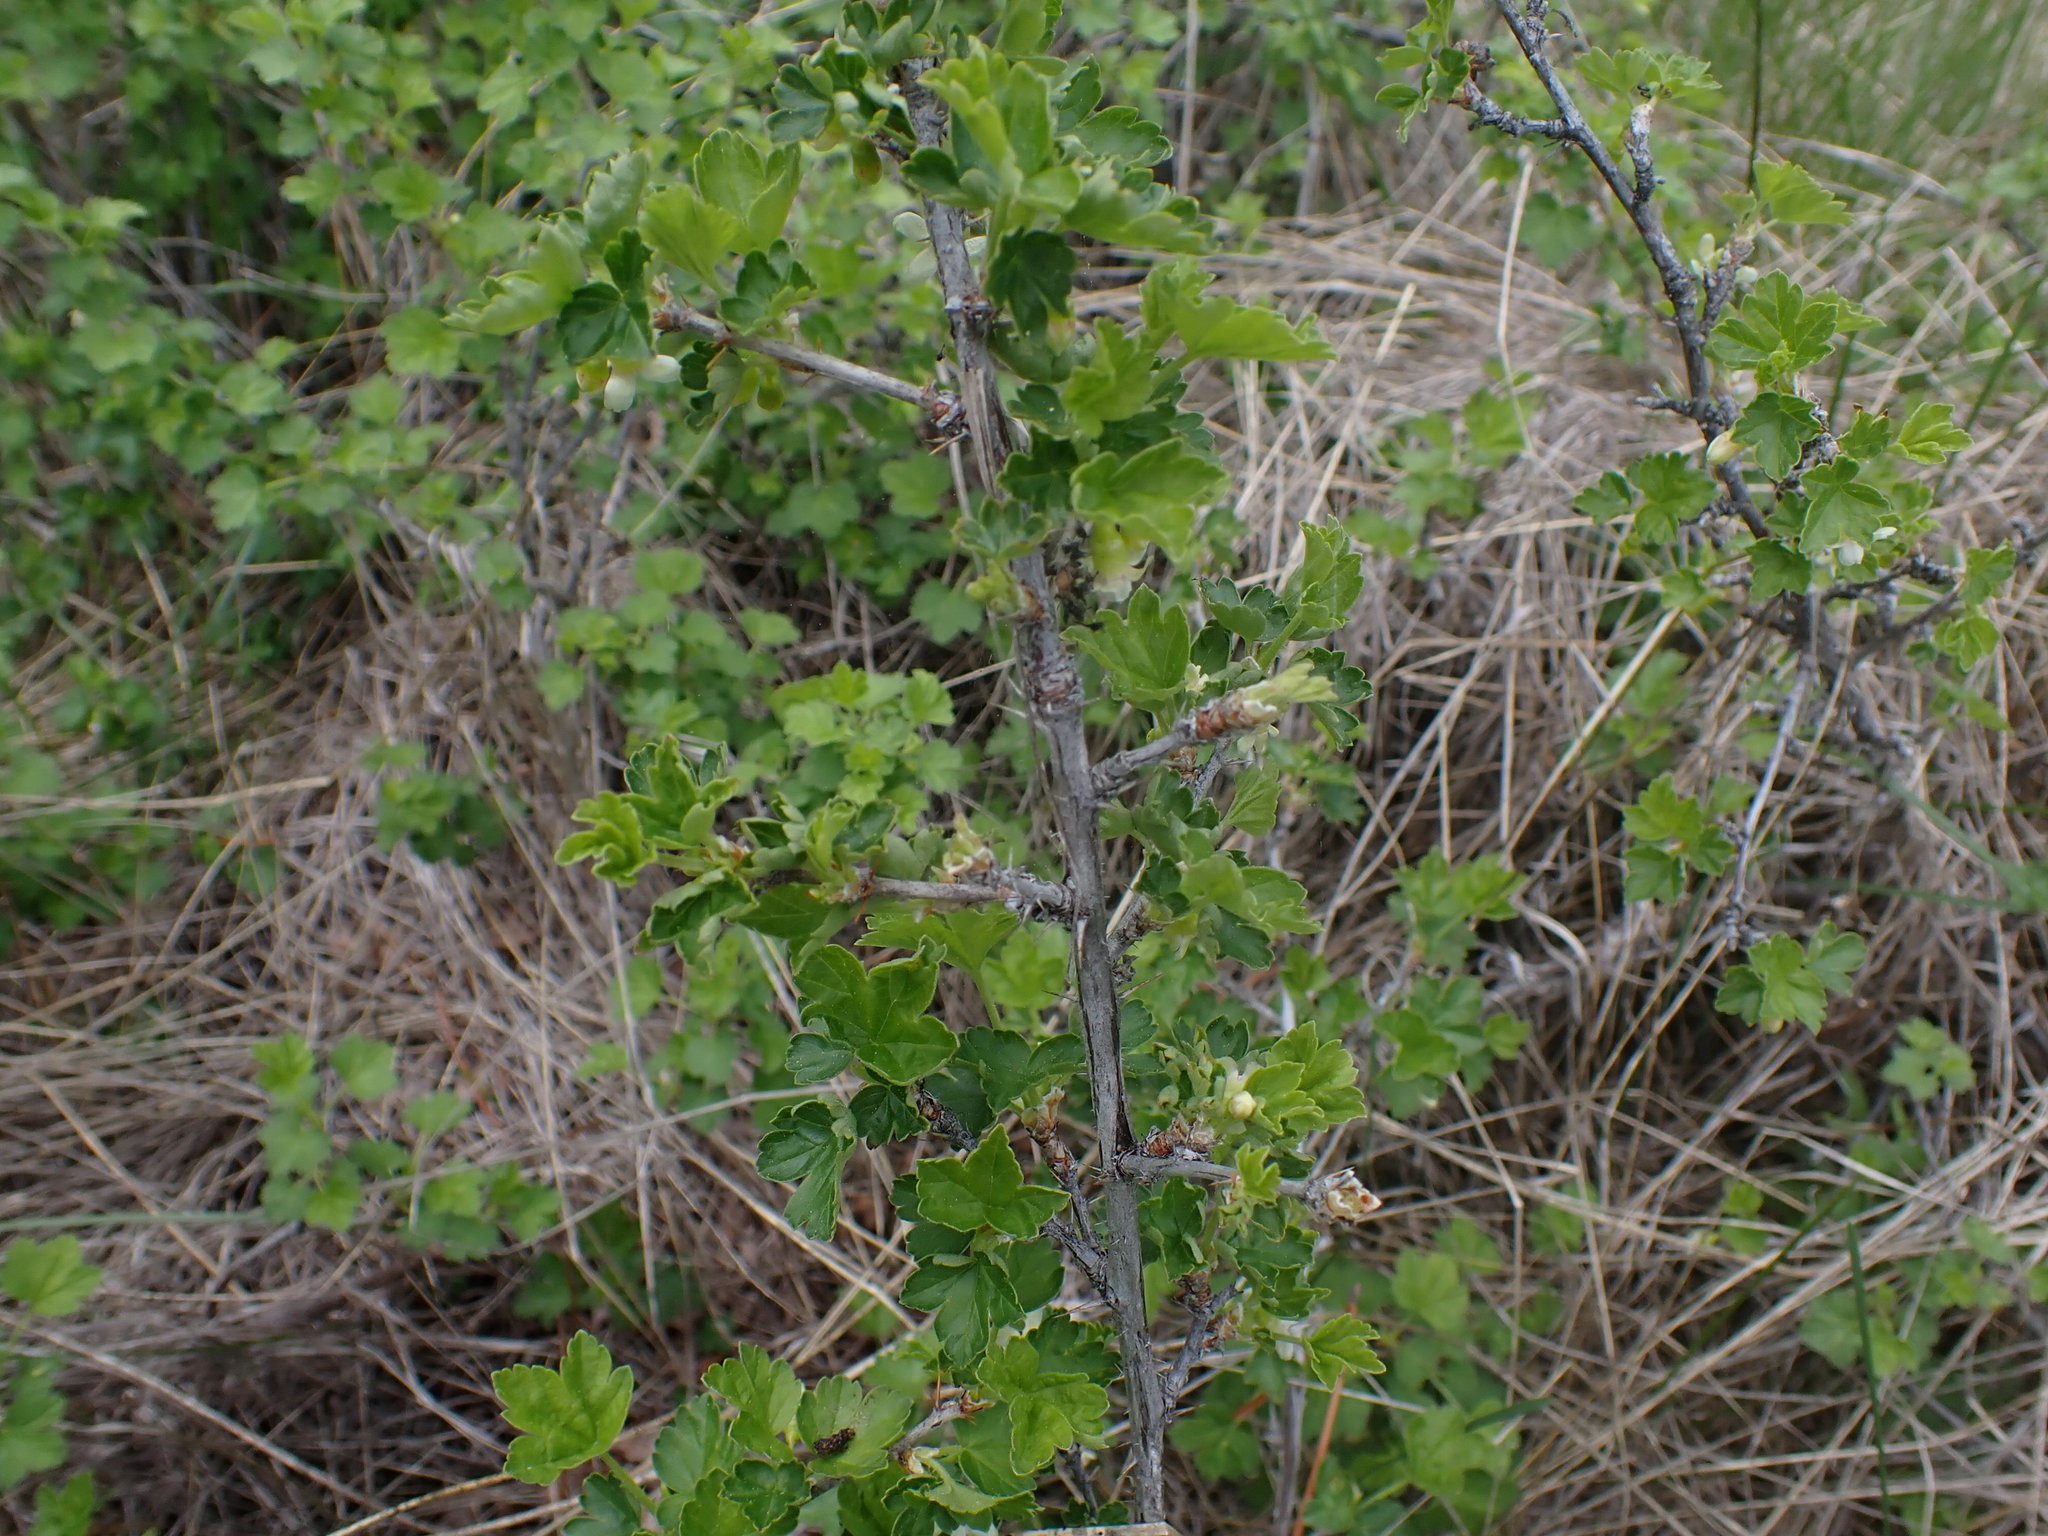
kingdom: Plantae
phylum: Tracheophyta
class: Magnoliopsida
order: Saxifragales
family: Grossulariaceae
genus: Ribes
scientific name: Ribes oxyacanthoides
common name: Northern gooseberry
